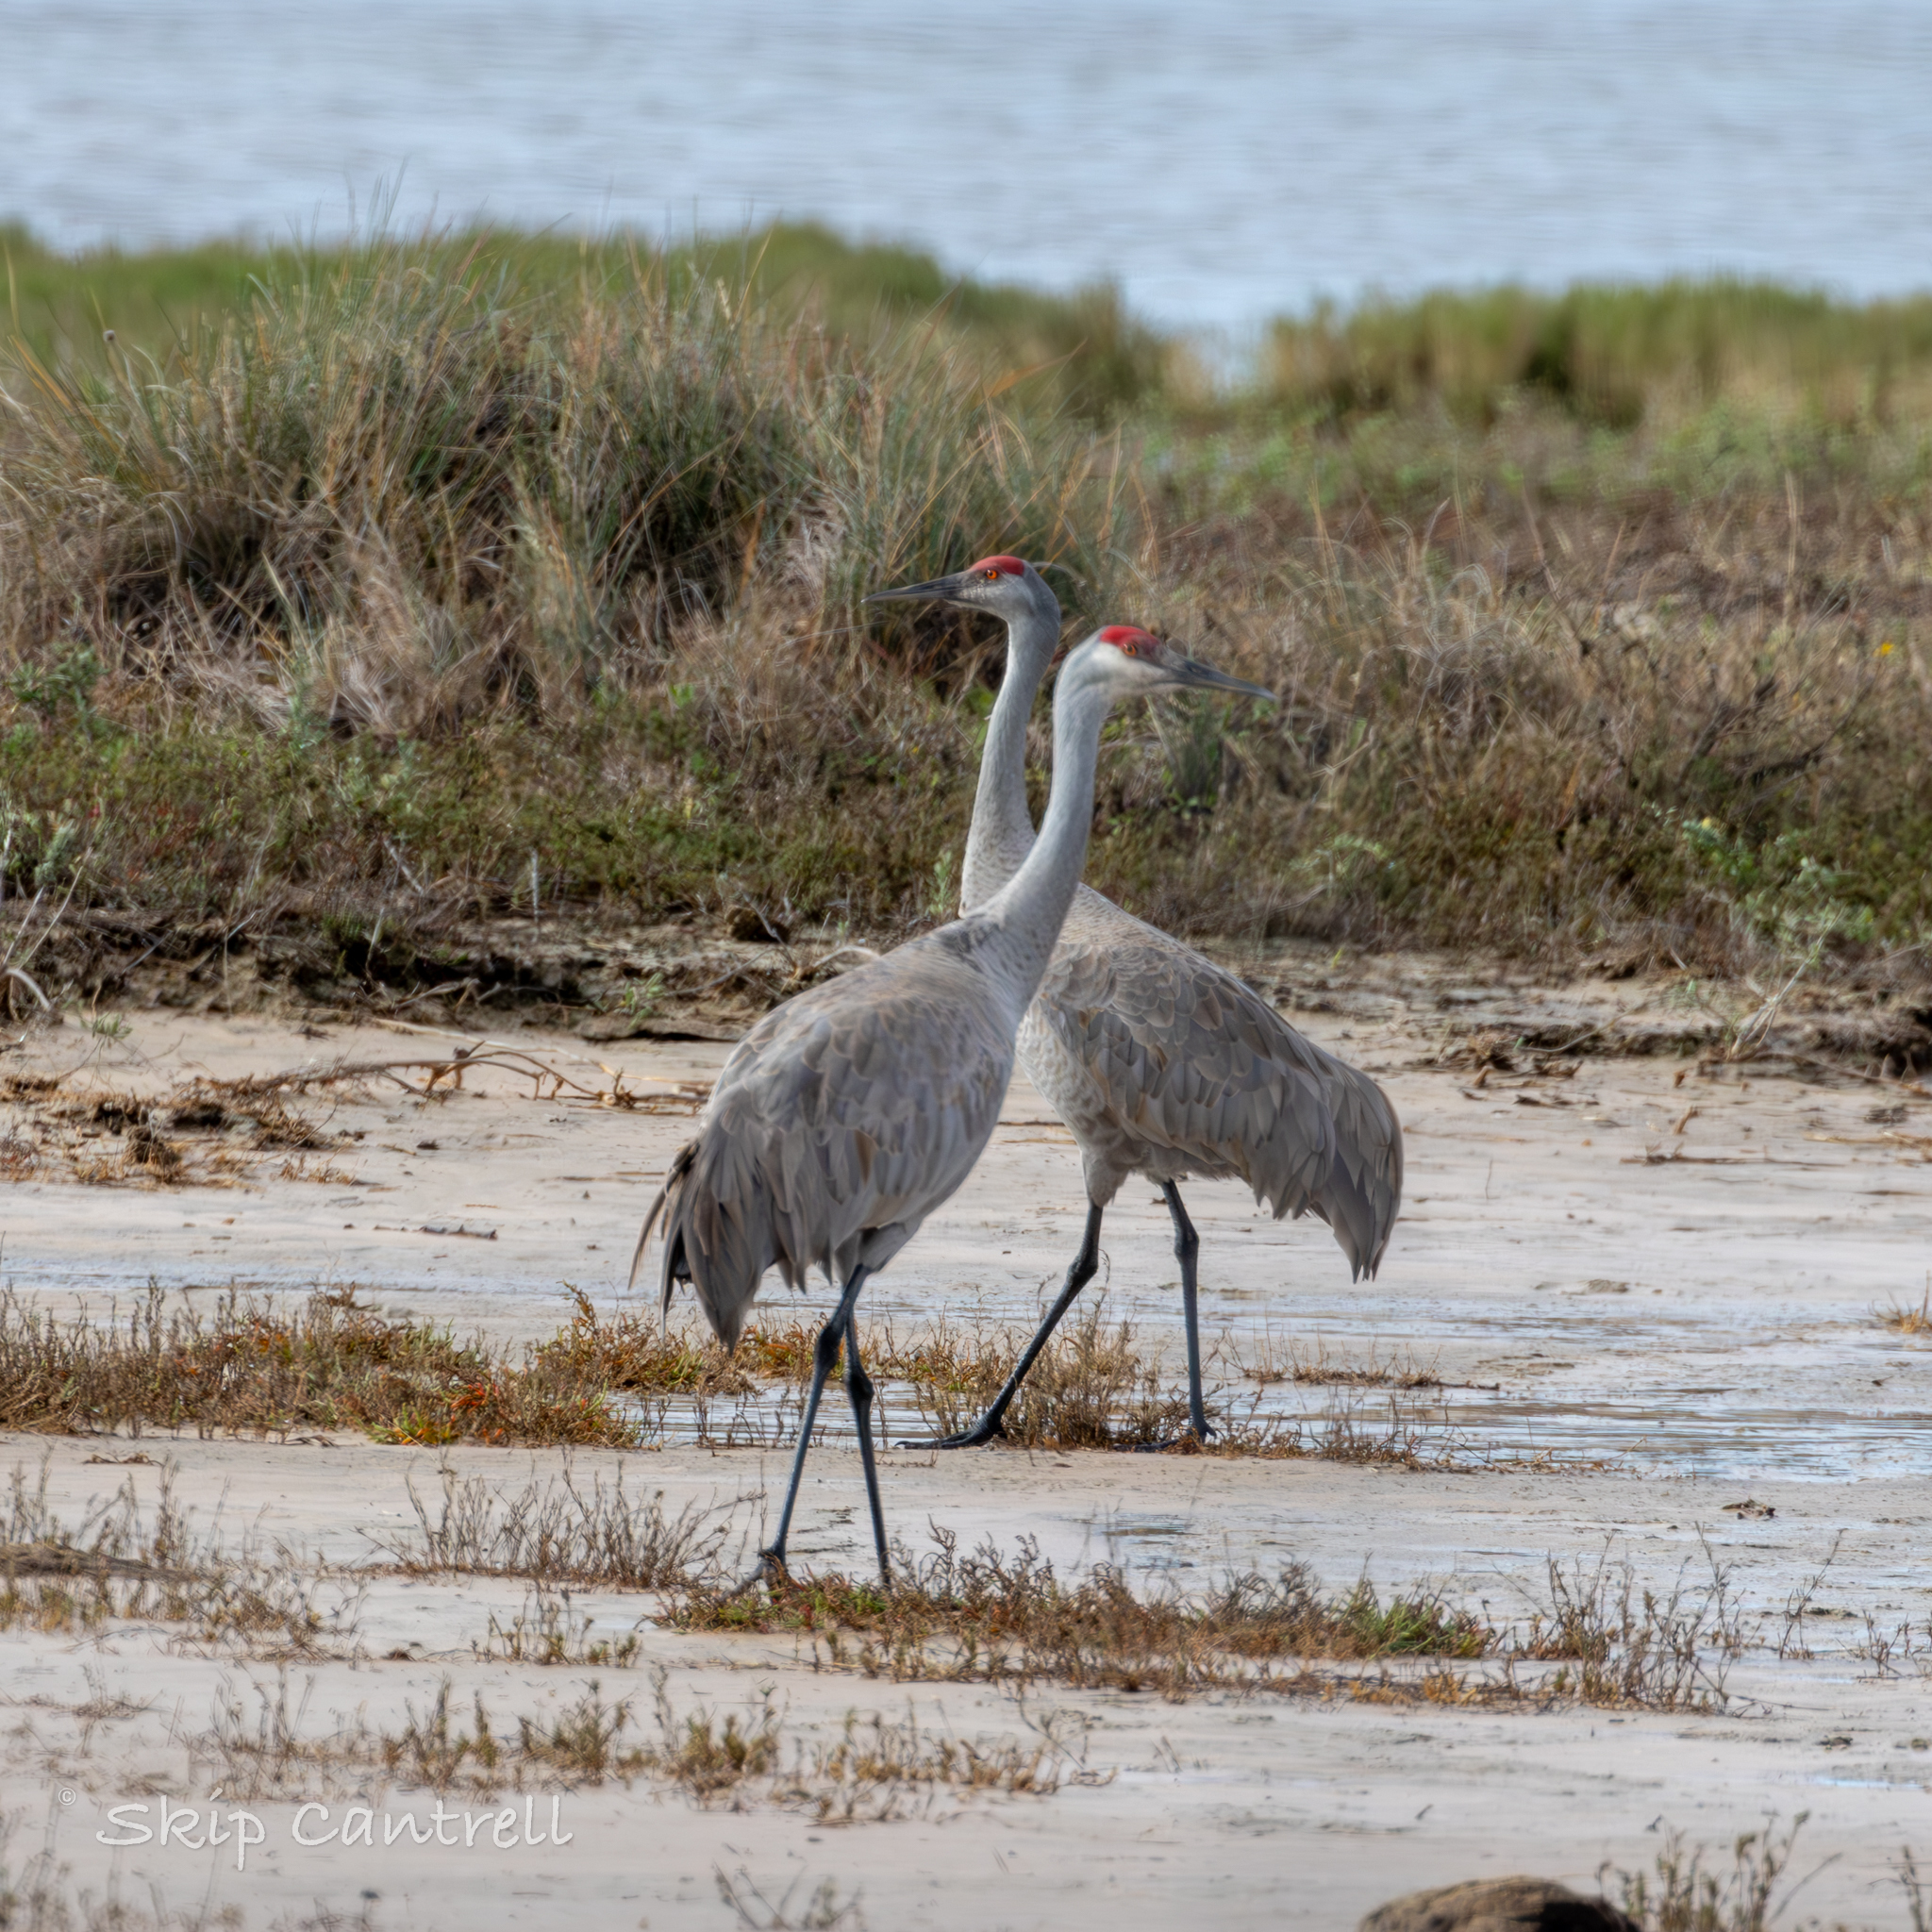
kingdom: Animalia
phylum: Chordata
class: Aves
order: Gruiformes
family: Gruidae
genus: Grus
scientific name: Grus canadensis
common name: Sandhill crane
